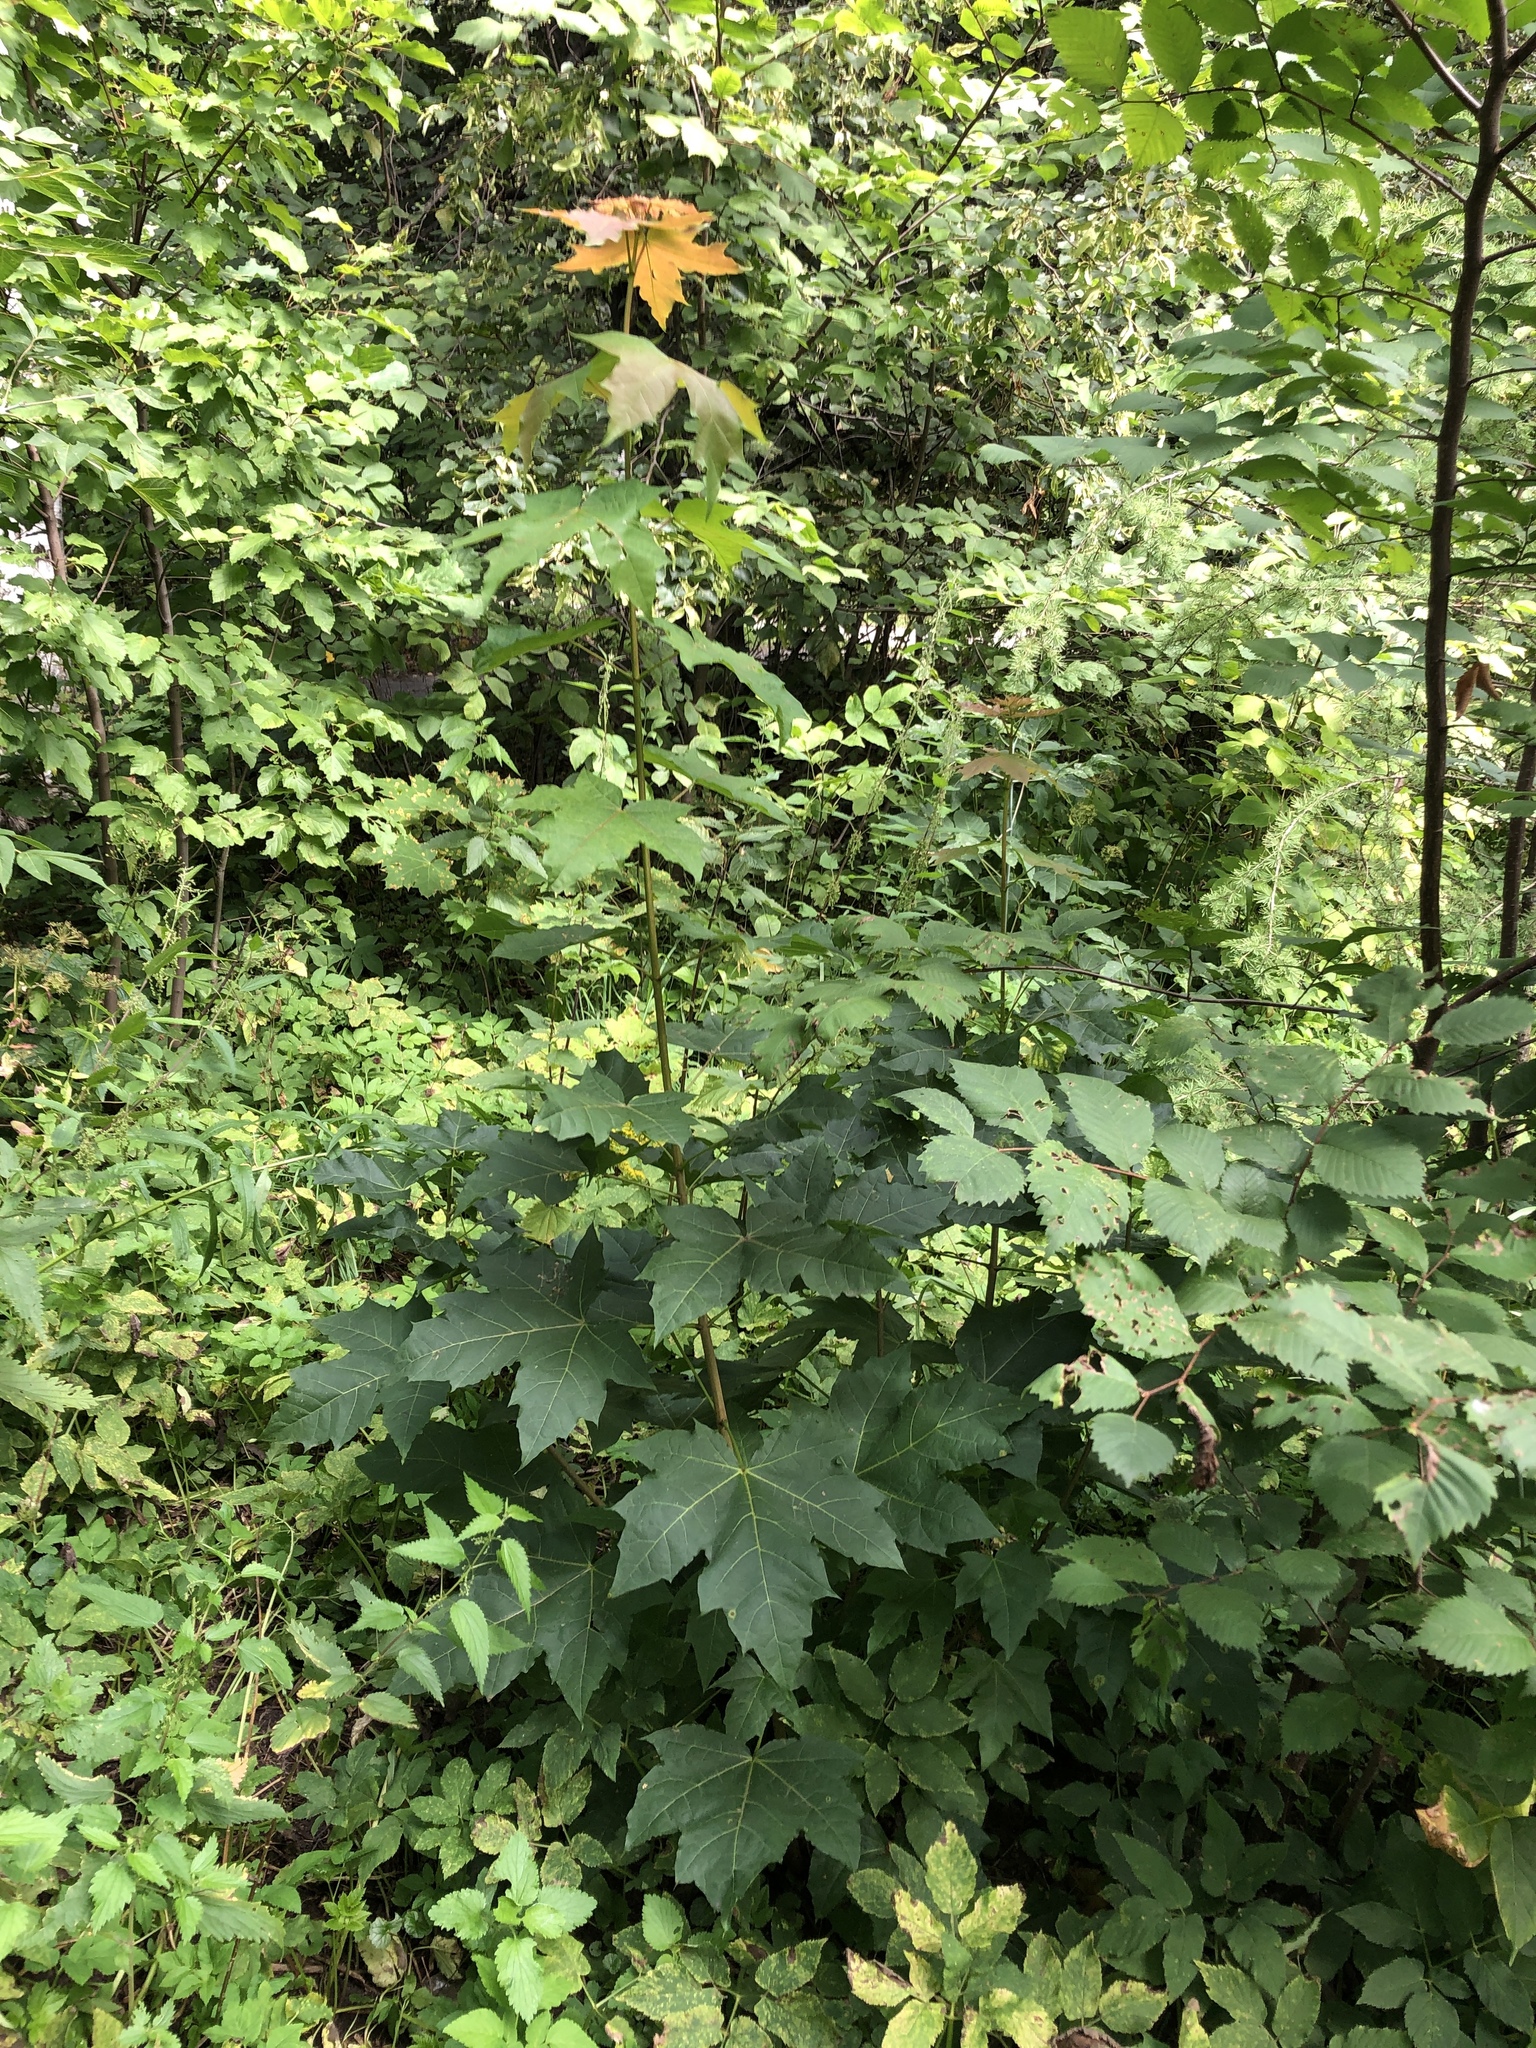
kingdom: Plantae
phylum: Tracheophyta
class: Magnoliopsida
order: Sapindales
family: Sapindaceae
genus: Acer
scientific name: Acer platanoides
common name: Norway maple
